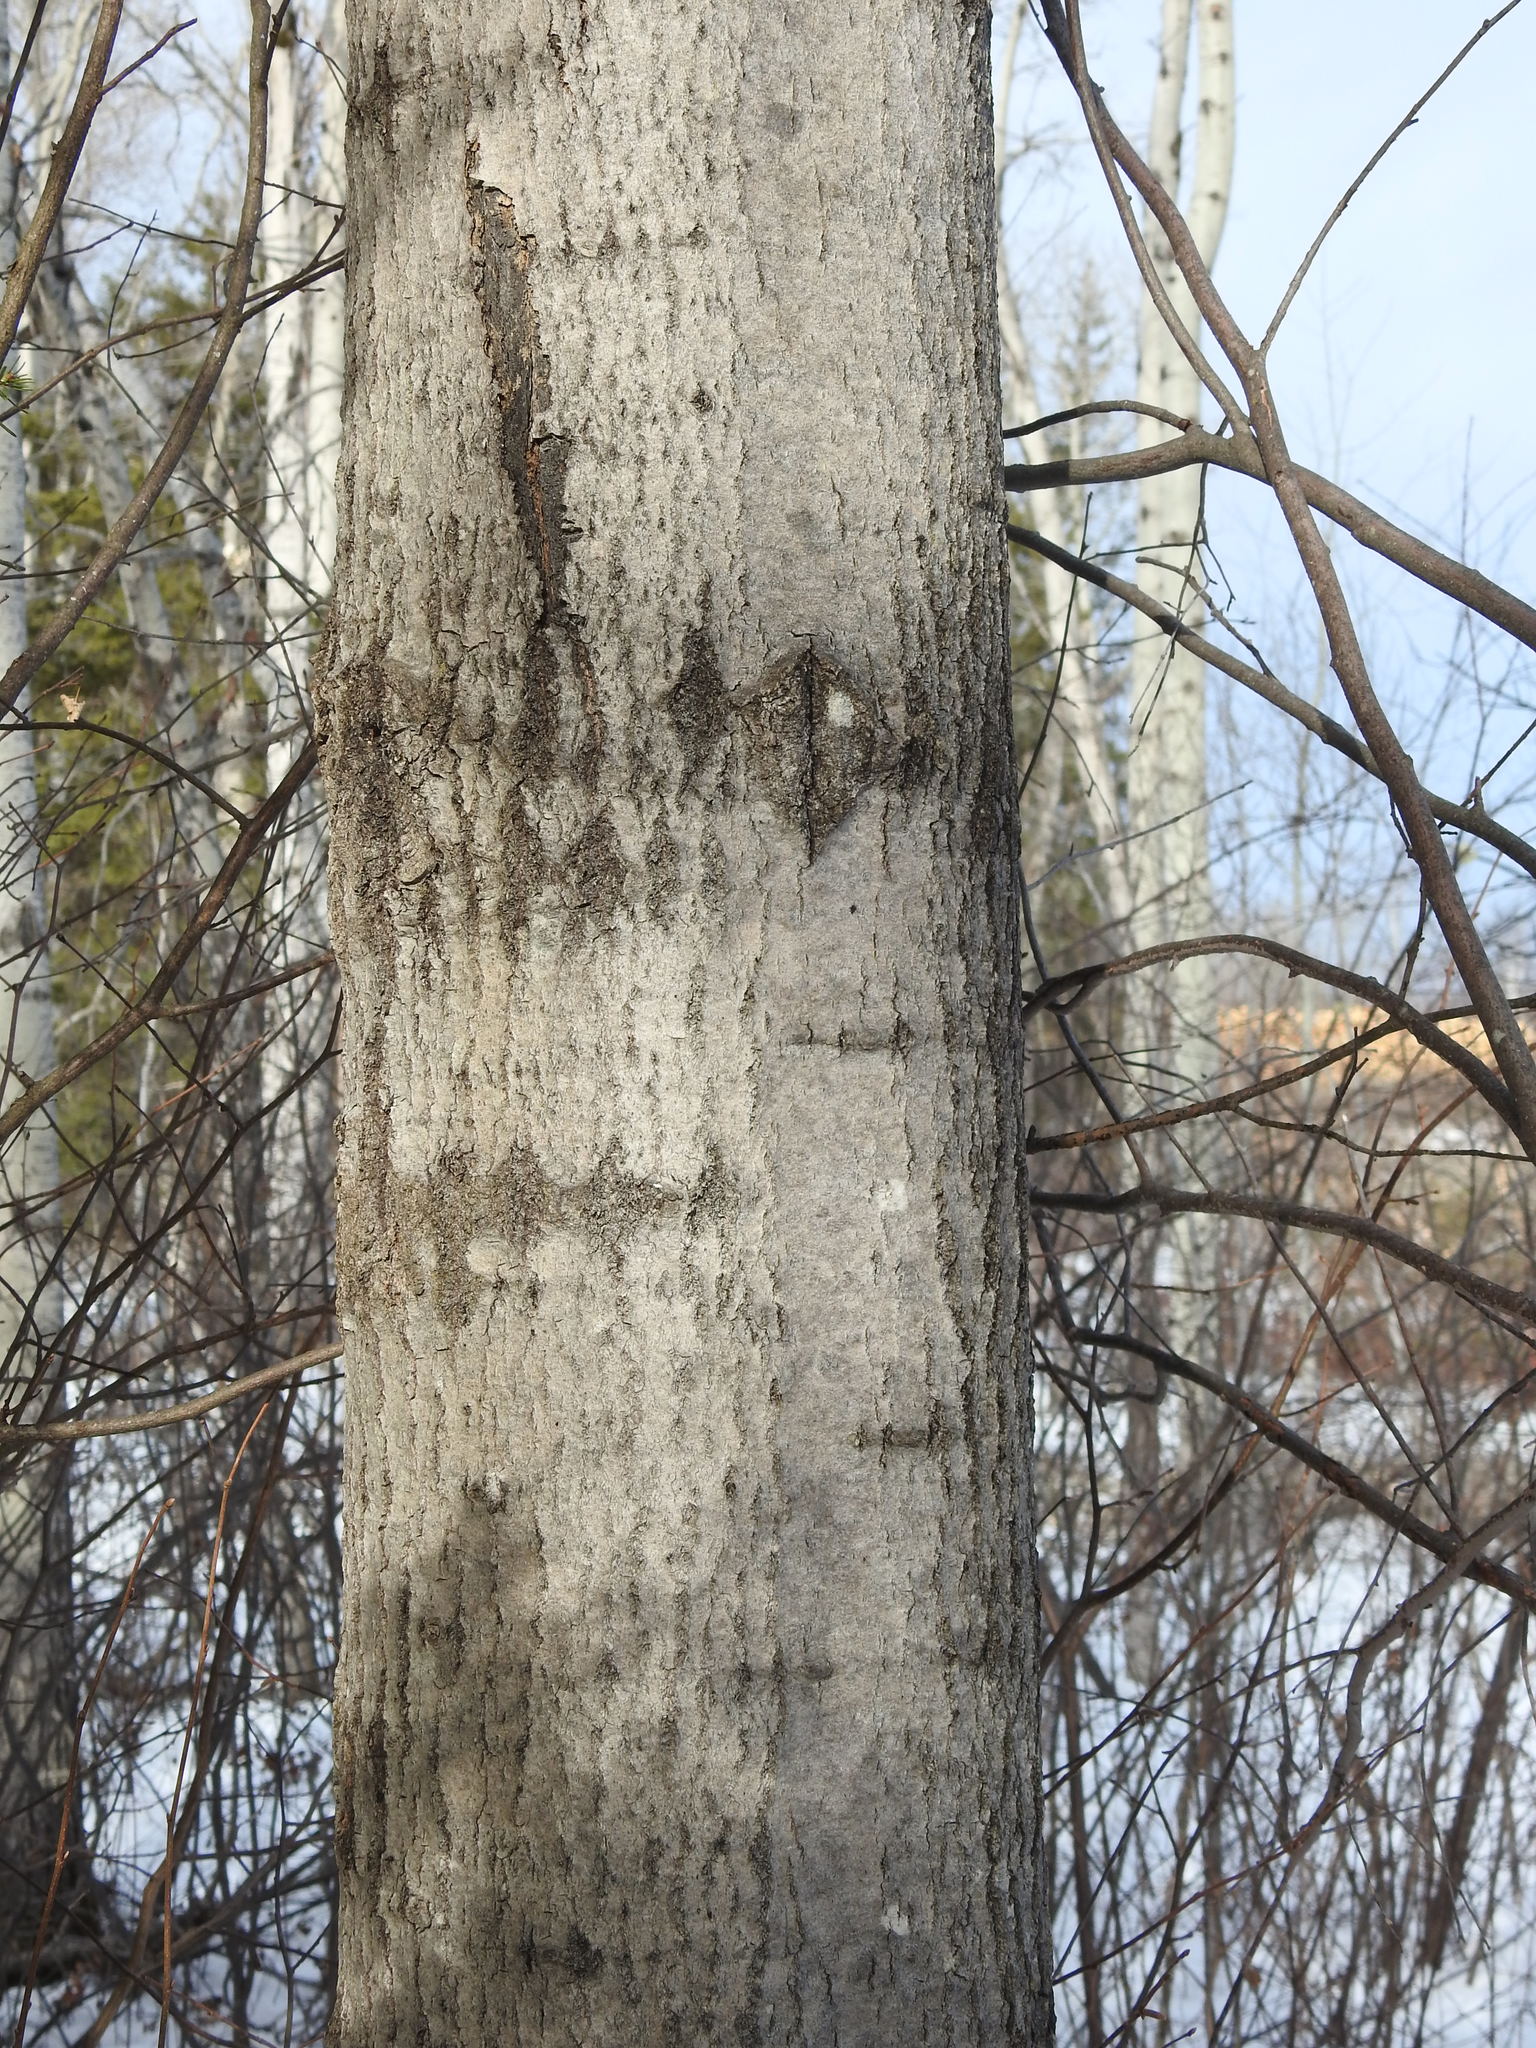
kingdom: Plantae
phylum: Tracheophyta
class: Magnoliopsida
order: Malpighiales
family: Salicaceae
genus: Populus
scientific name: Populus tremuloides
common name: Quaking aspen
